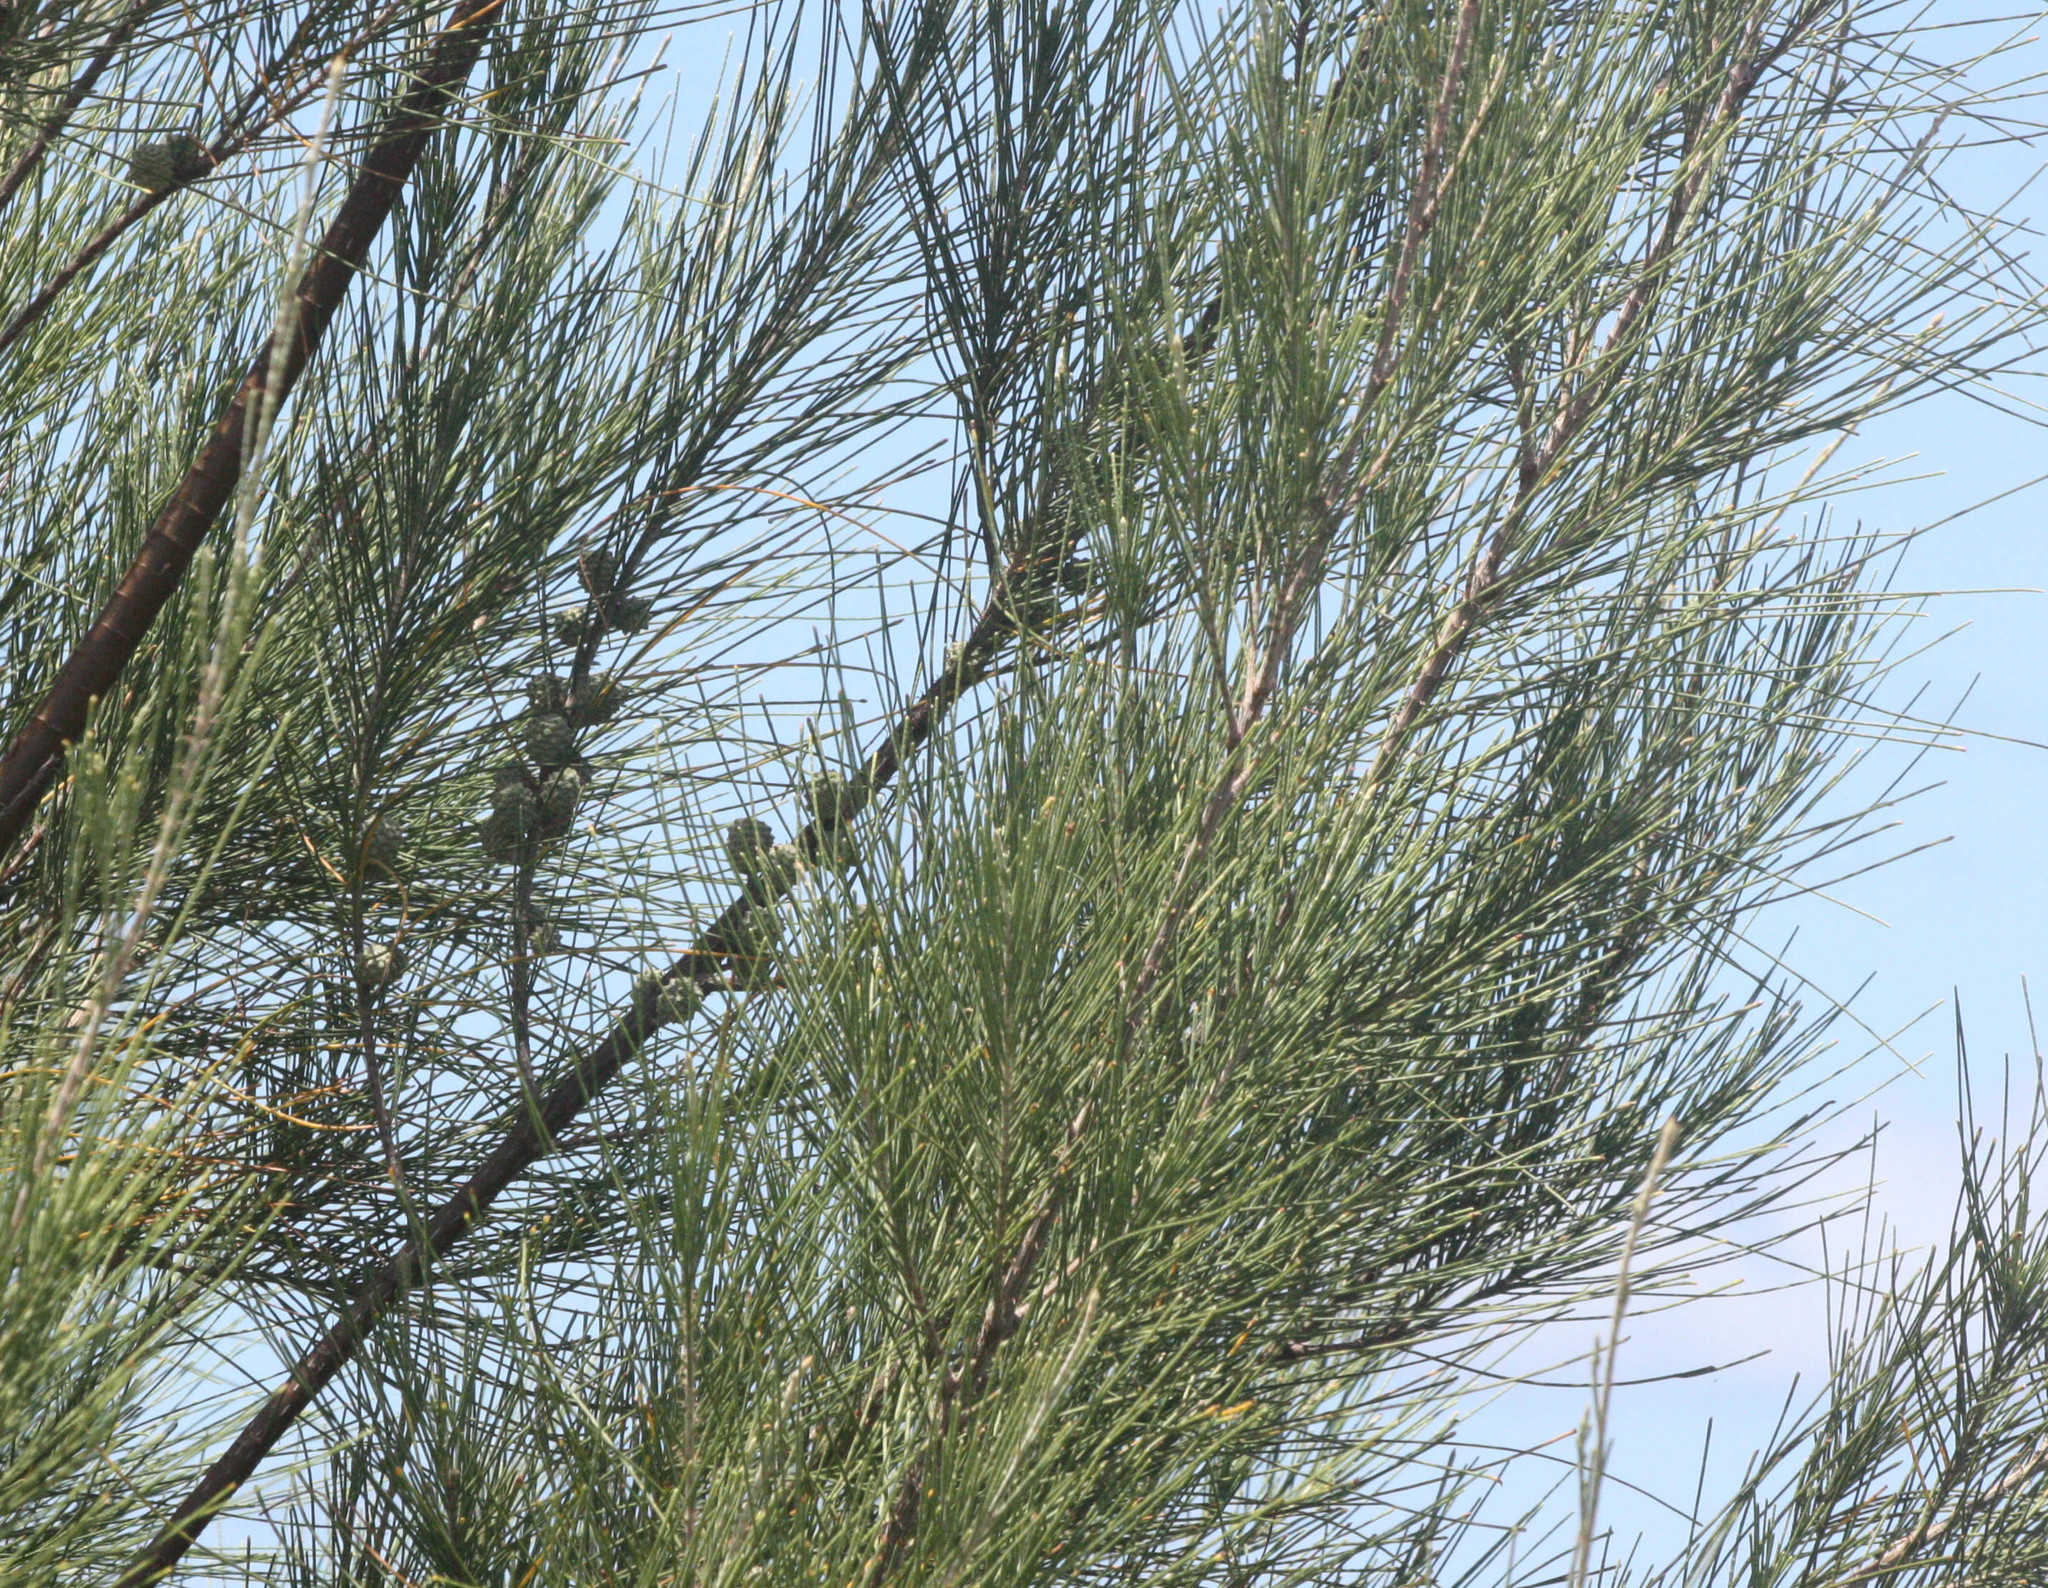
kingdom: Plantae
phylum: Tracheophyta
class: Magnoliopsida
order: Fagales
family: Casuarinaceae
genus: Casuarina
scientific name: Casuarina equisetifolia
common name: Beach sheoak
